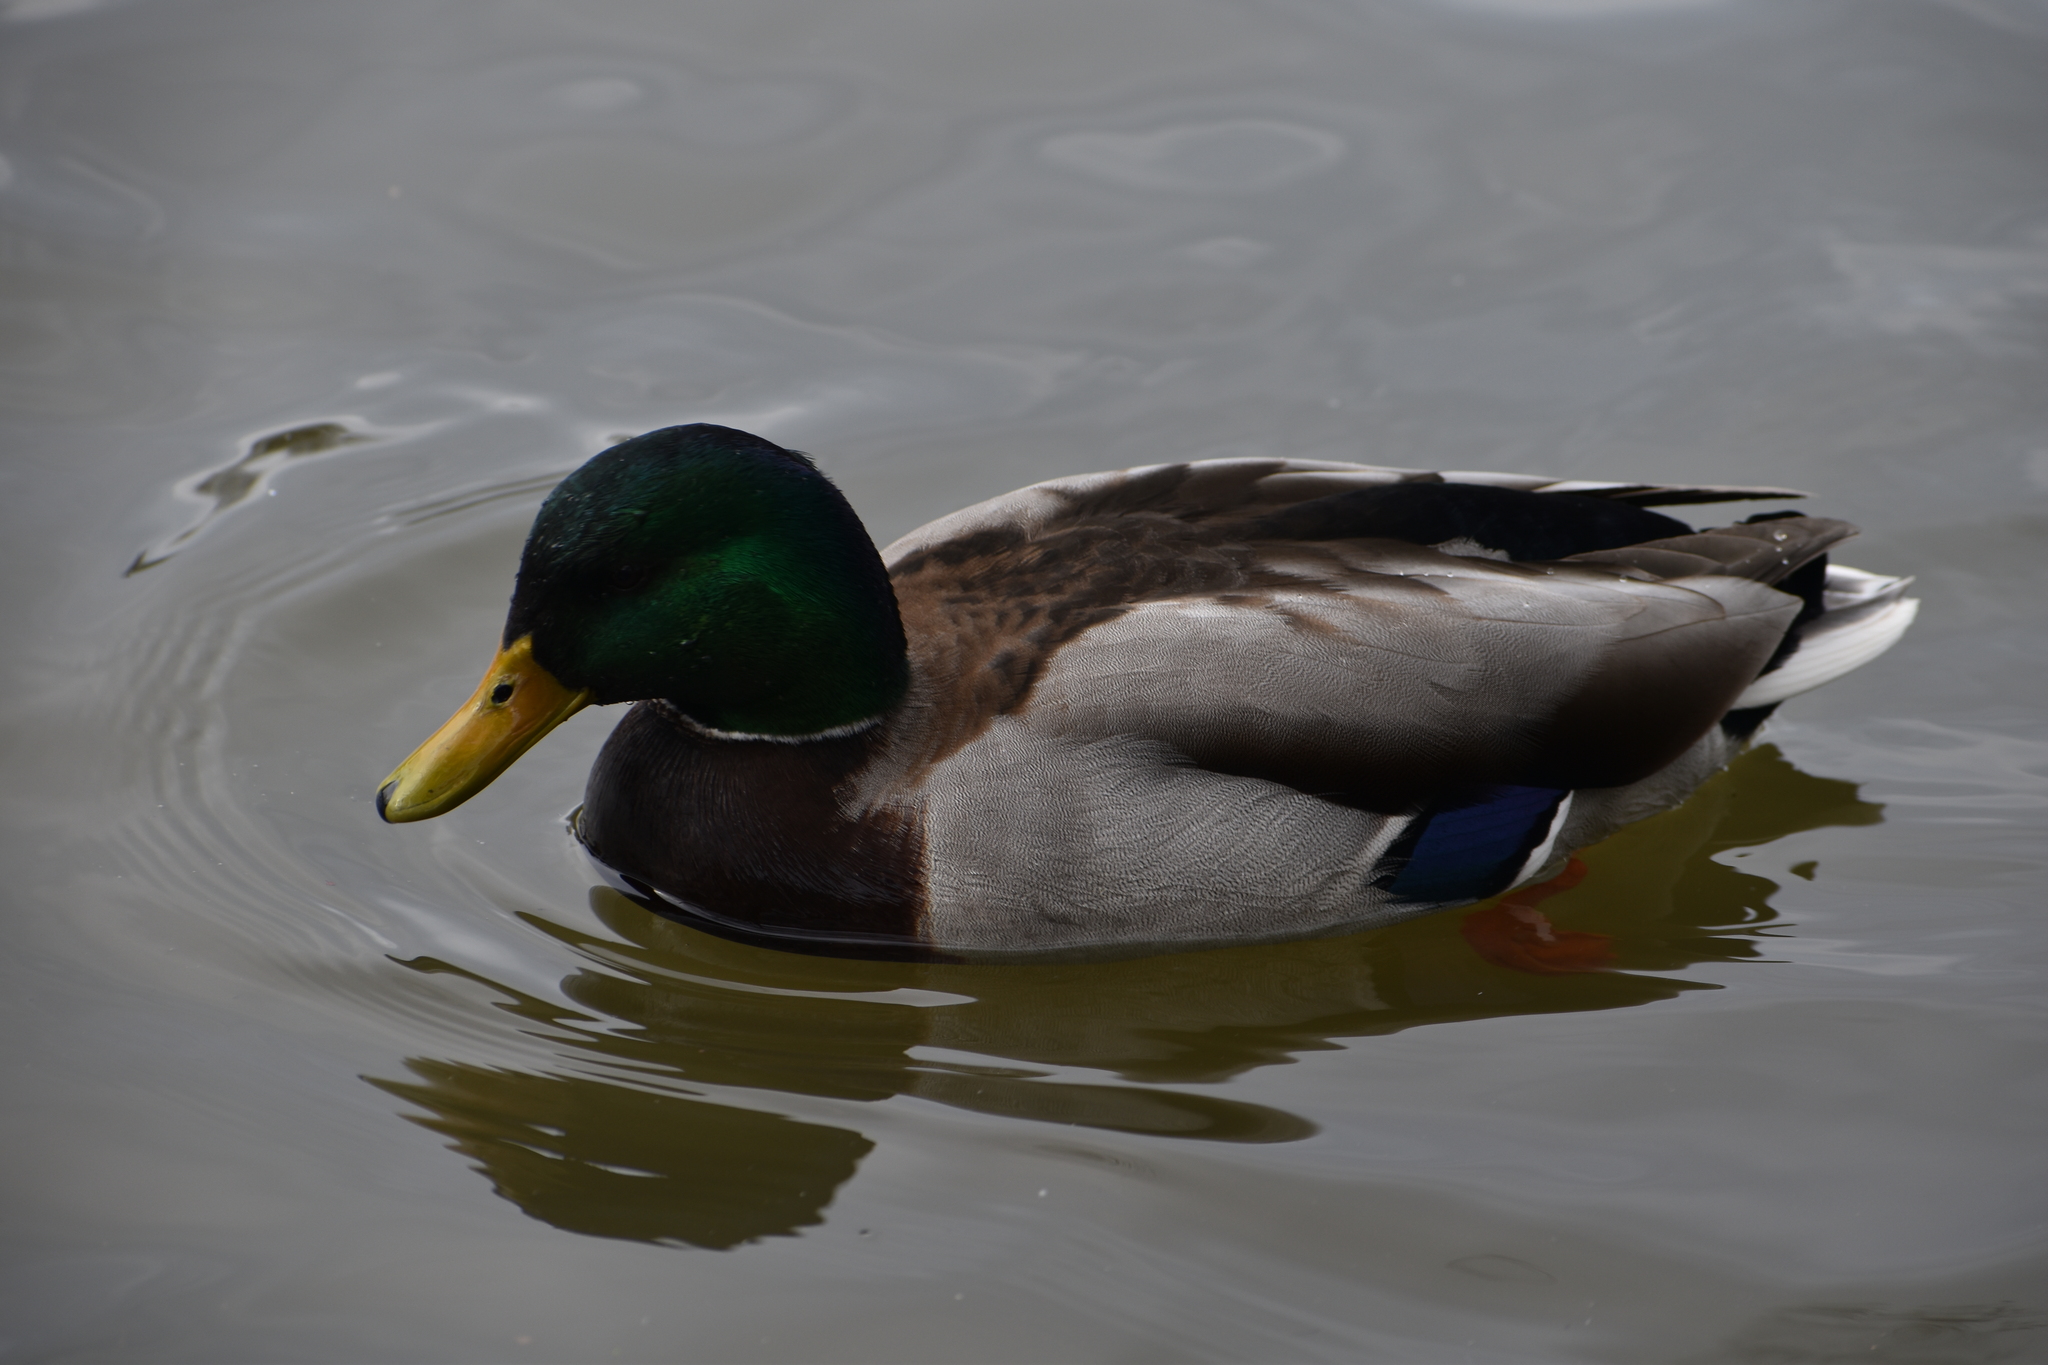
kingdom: Animalia
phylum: Chordata
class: Aves
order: Anseriformes
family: Anatidae
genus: Anas
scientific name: Anas platyrhynchos
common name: Mallard
